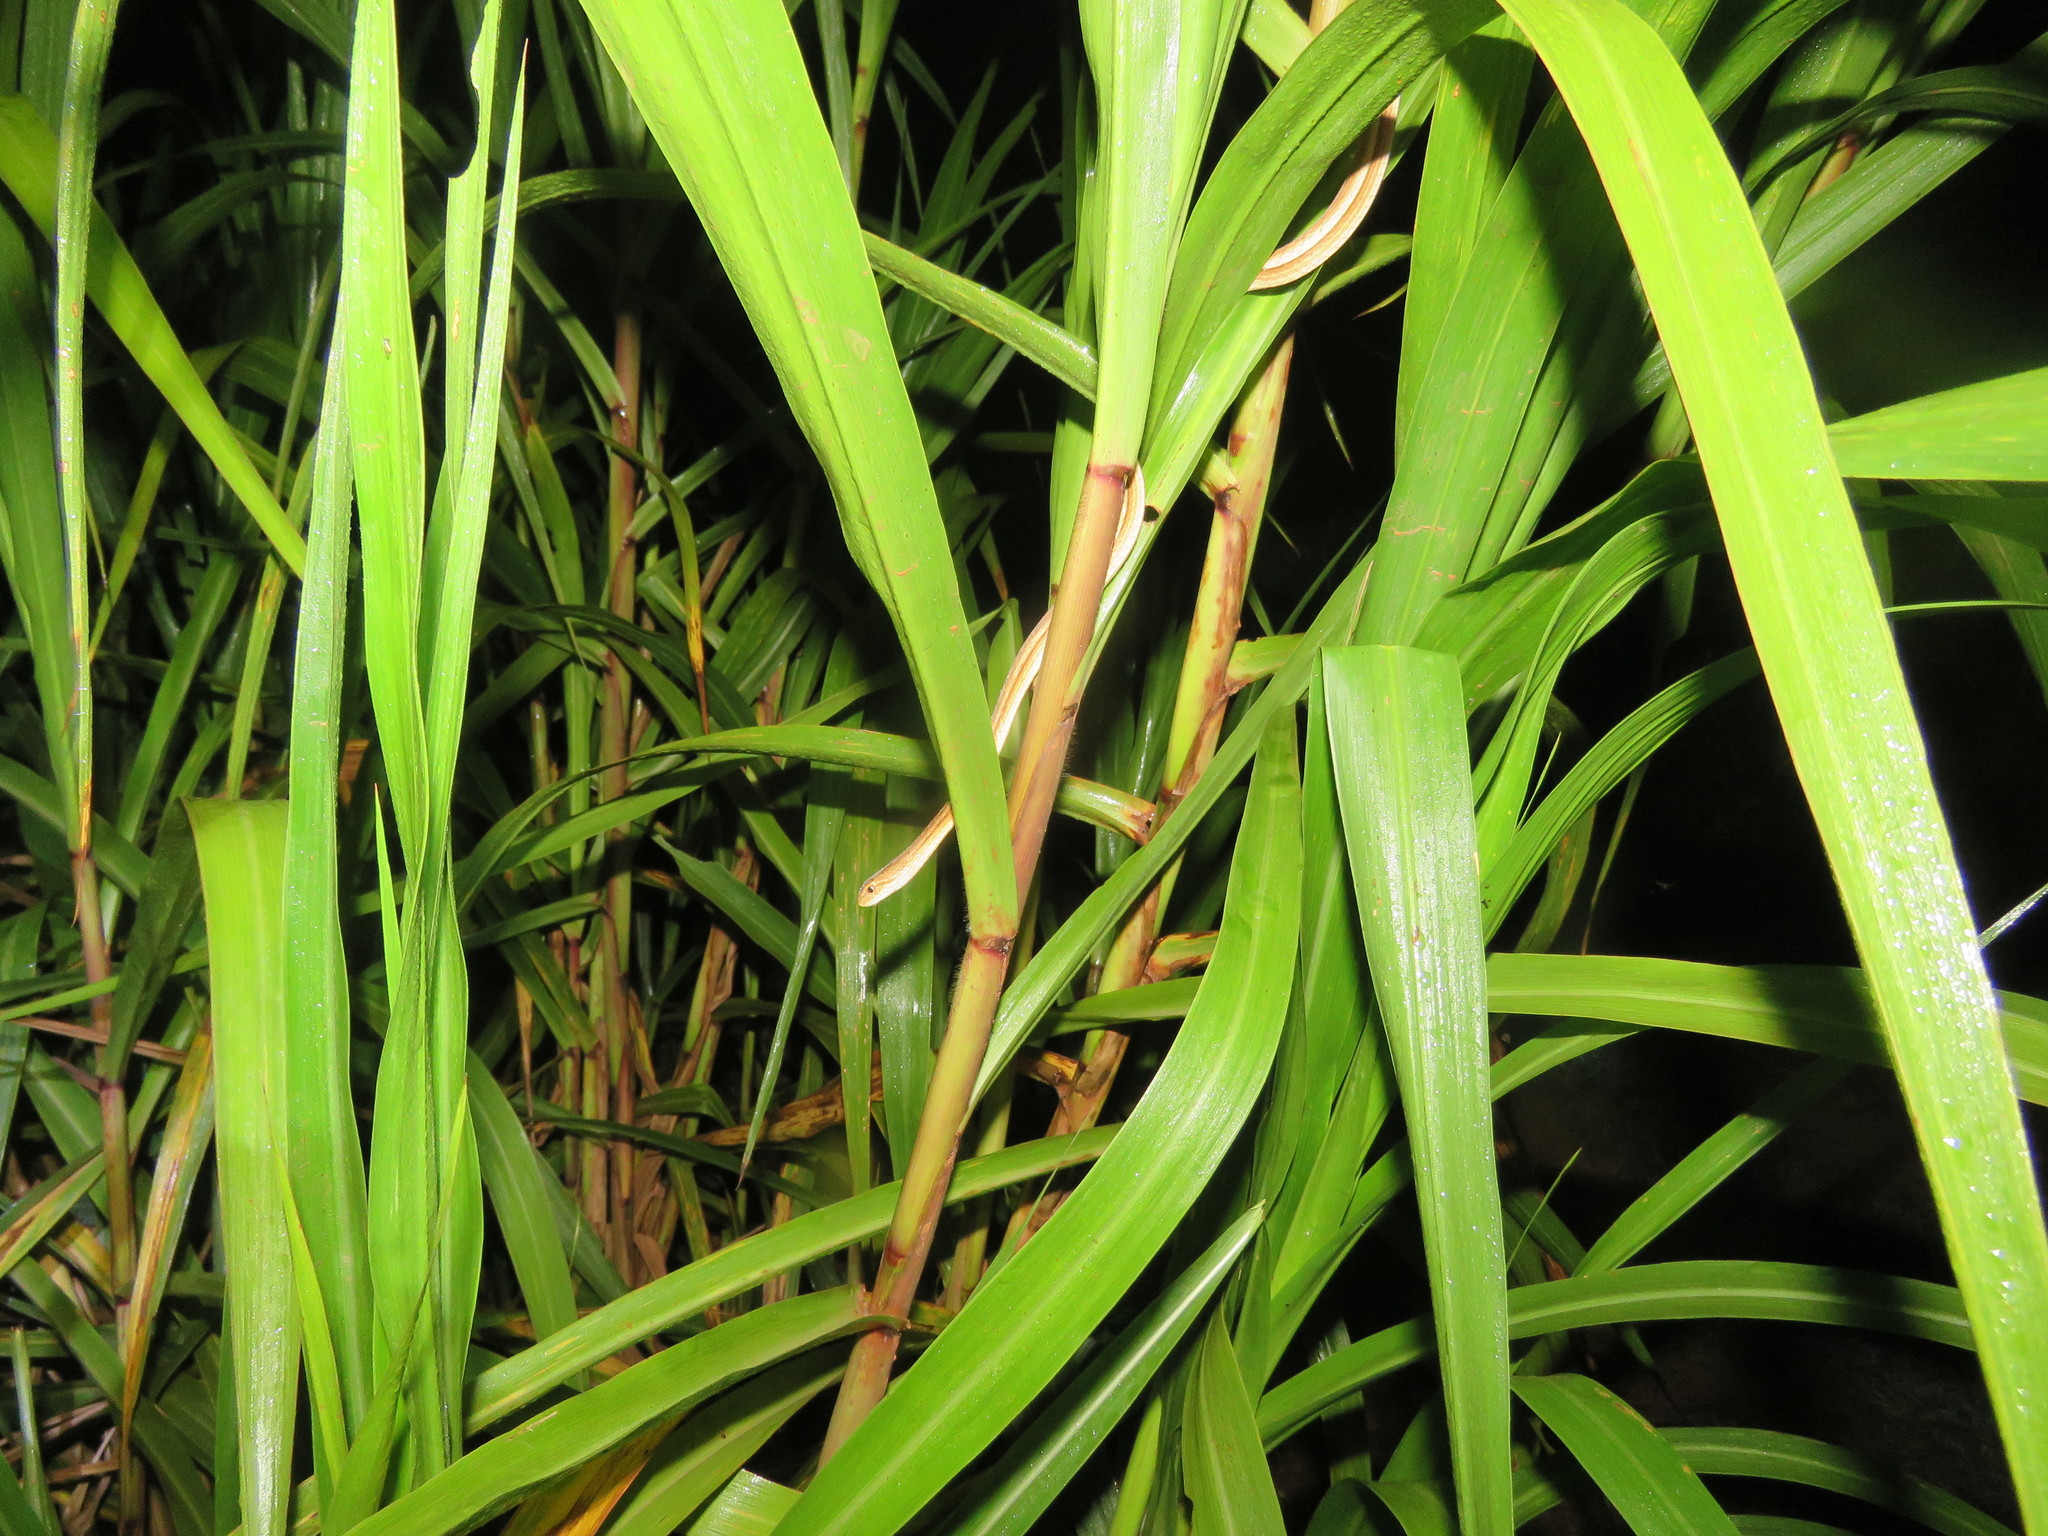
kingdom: Animalia
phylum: Chordata
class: Squamata
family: Colubridae
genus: Thamnodynastes
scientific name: Thamnodynastes pallidus
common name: Amazon coastal house snake
